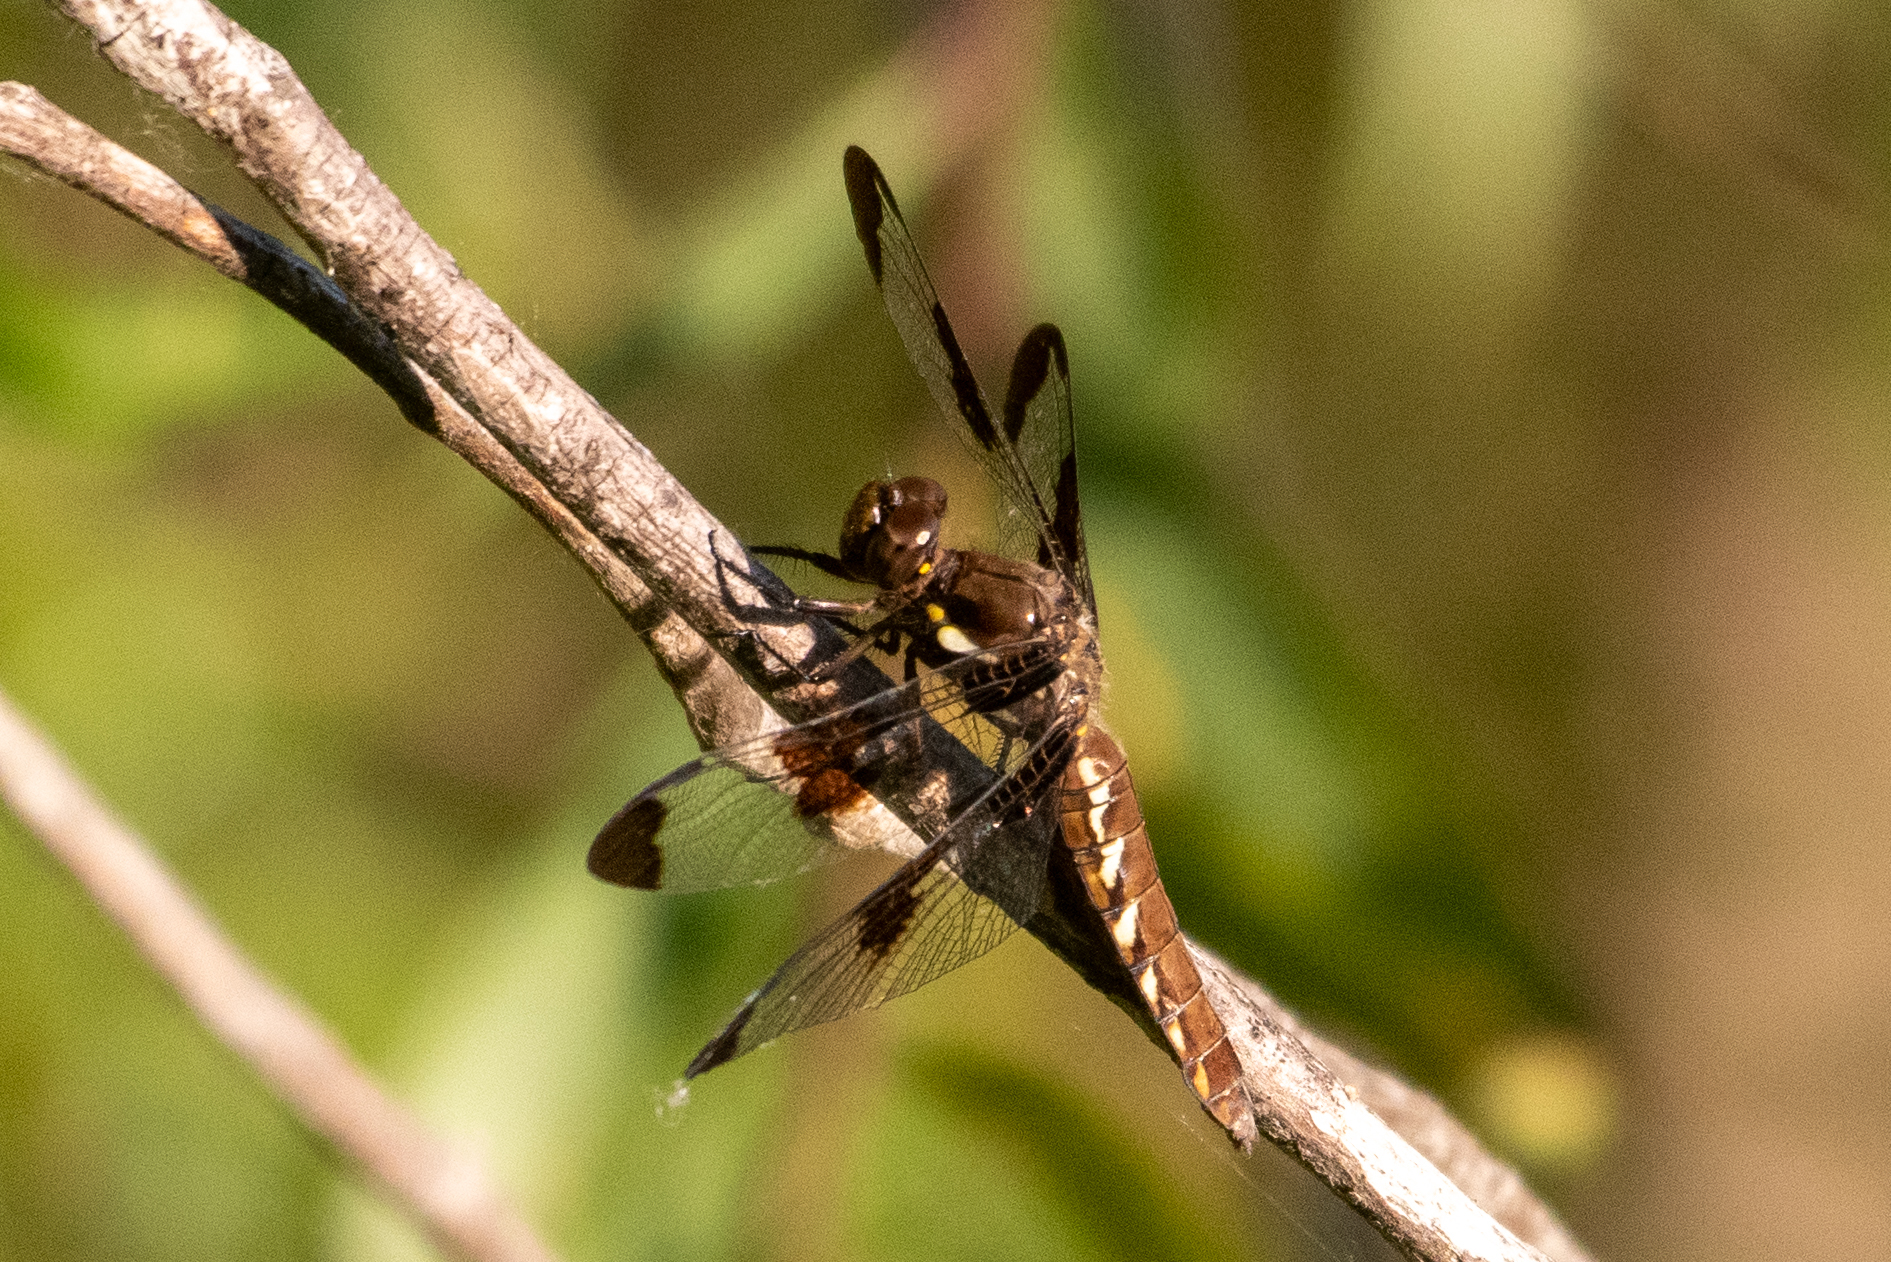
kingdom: Animalia
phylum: Arthropoda
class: Insecta
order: Odonata
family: Libellulidae
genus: Plathemis
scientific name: Plathemis lydia
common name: Common whitetail
